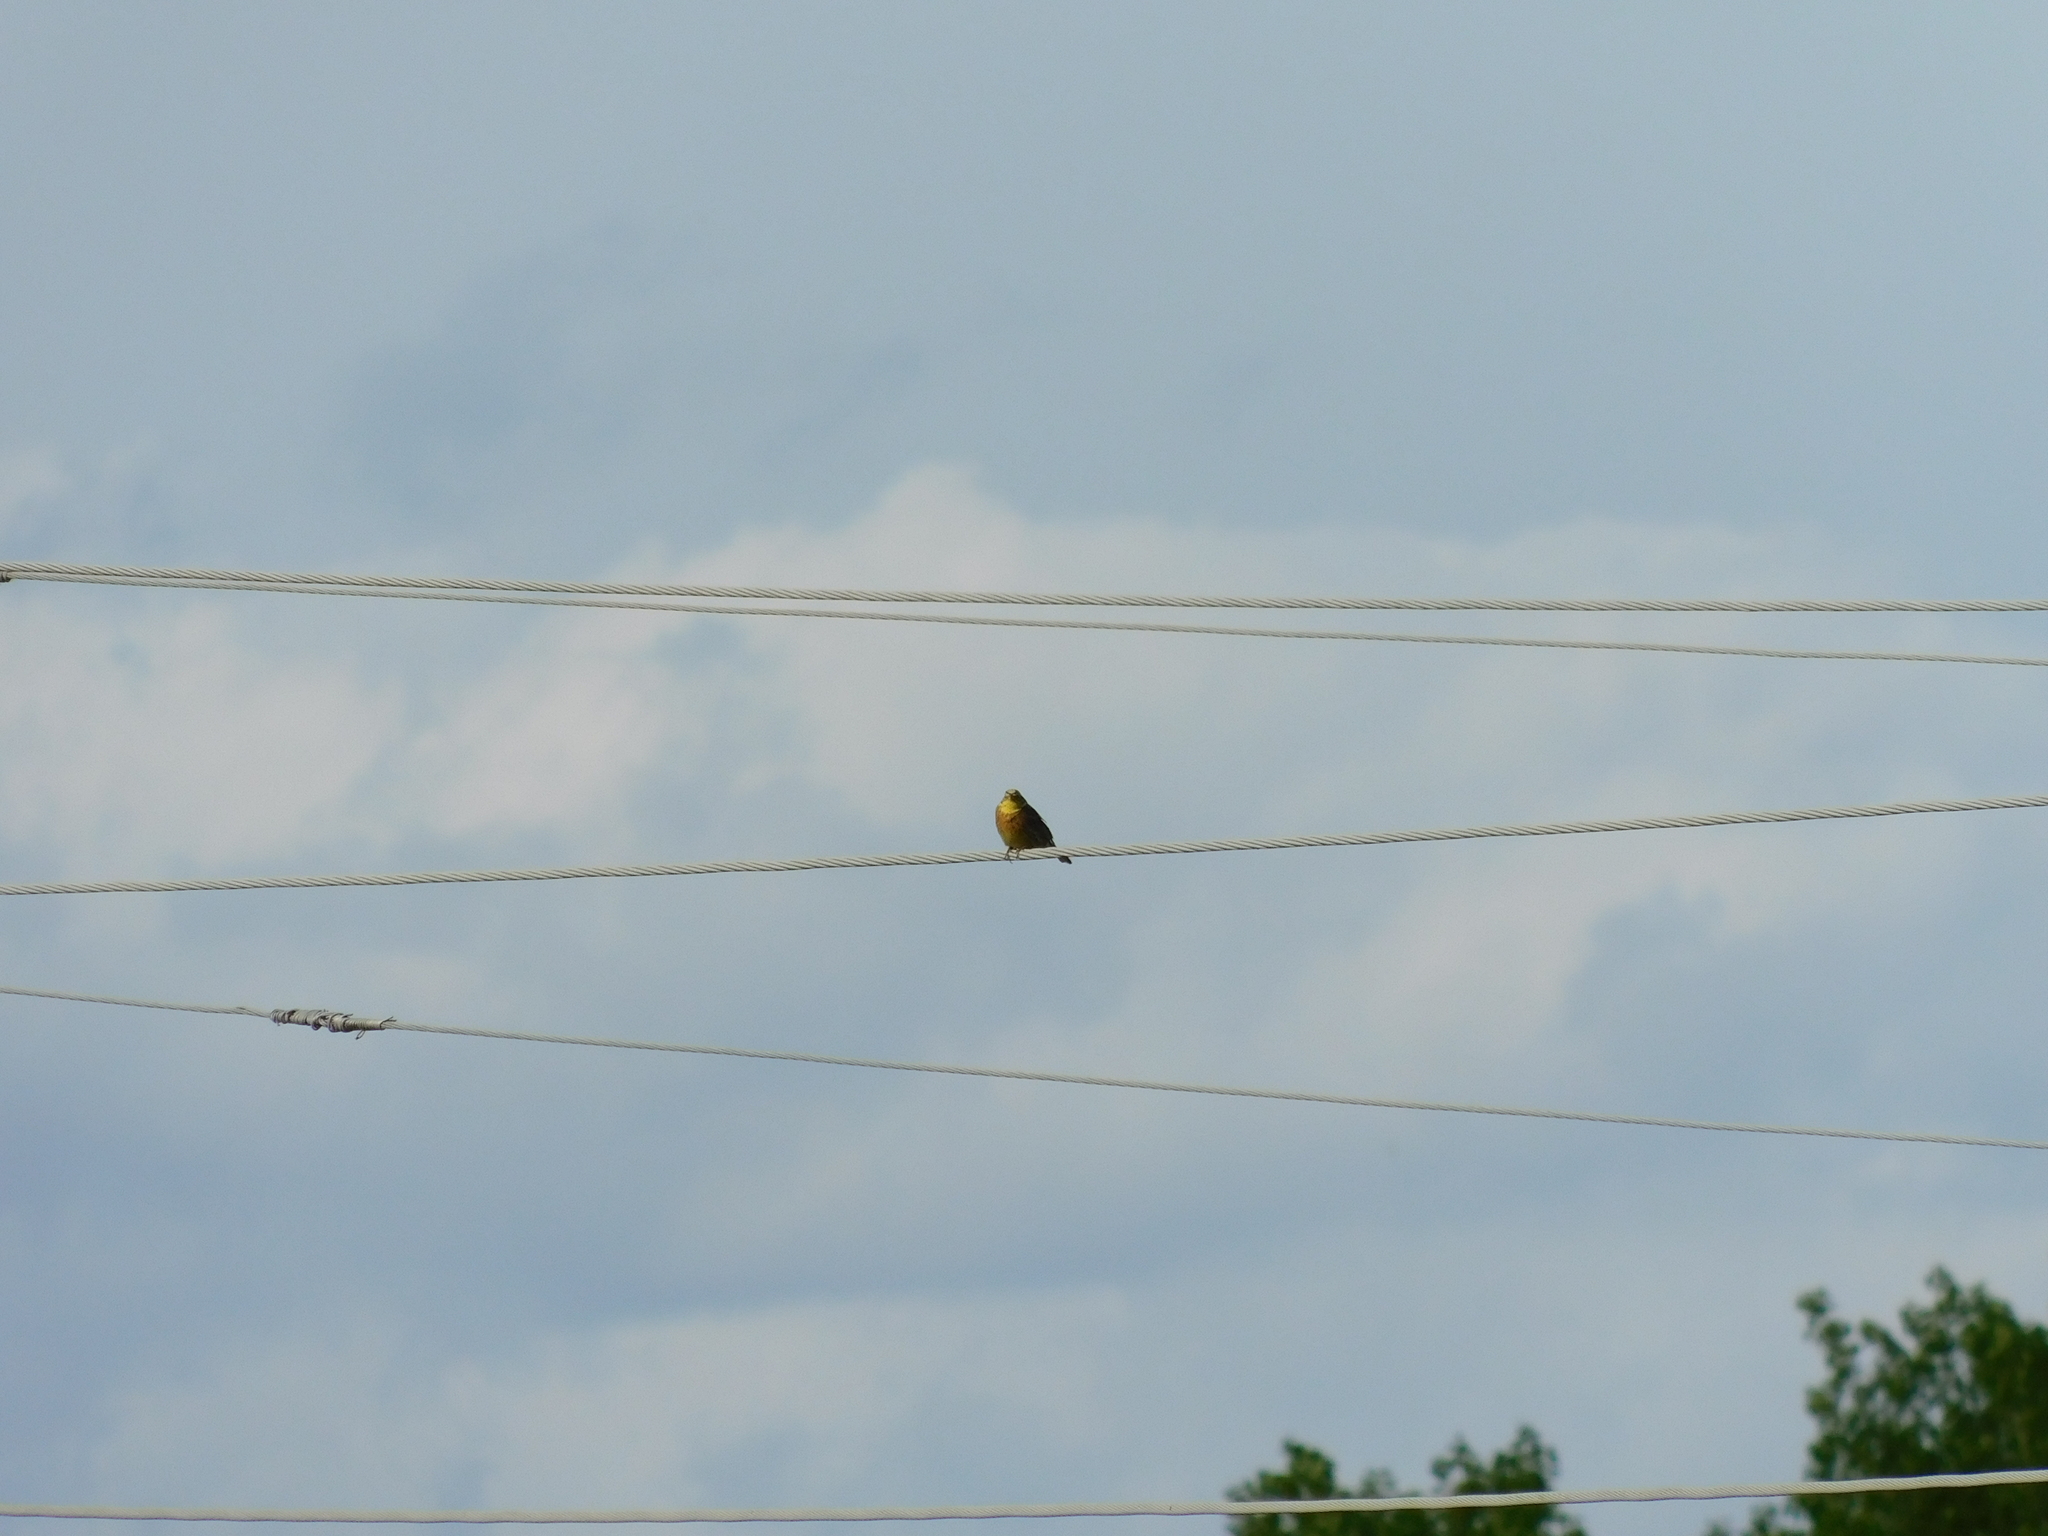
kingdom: Animalia
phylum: Chordata
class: Aves
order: Passeriformes
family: Emberizidae
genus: Emberiza
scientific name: Emberiza citrinella
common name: Yellowhammer
